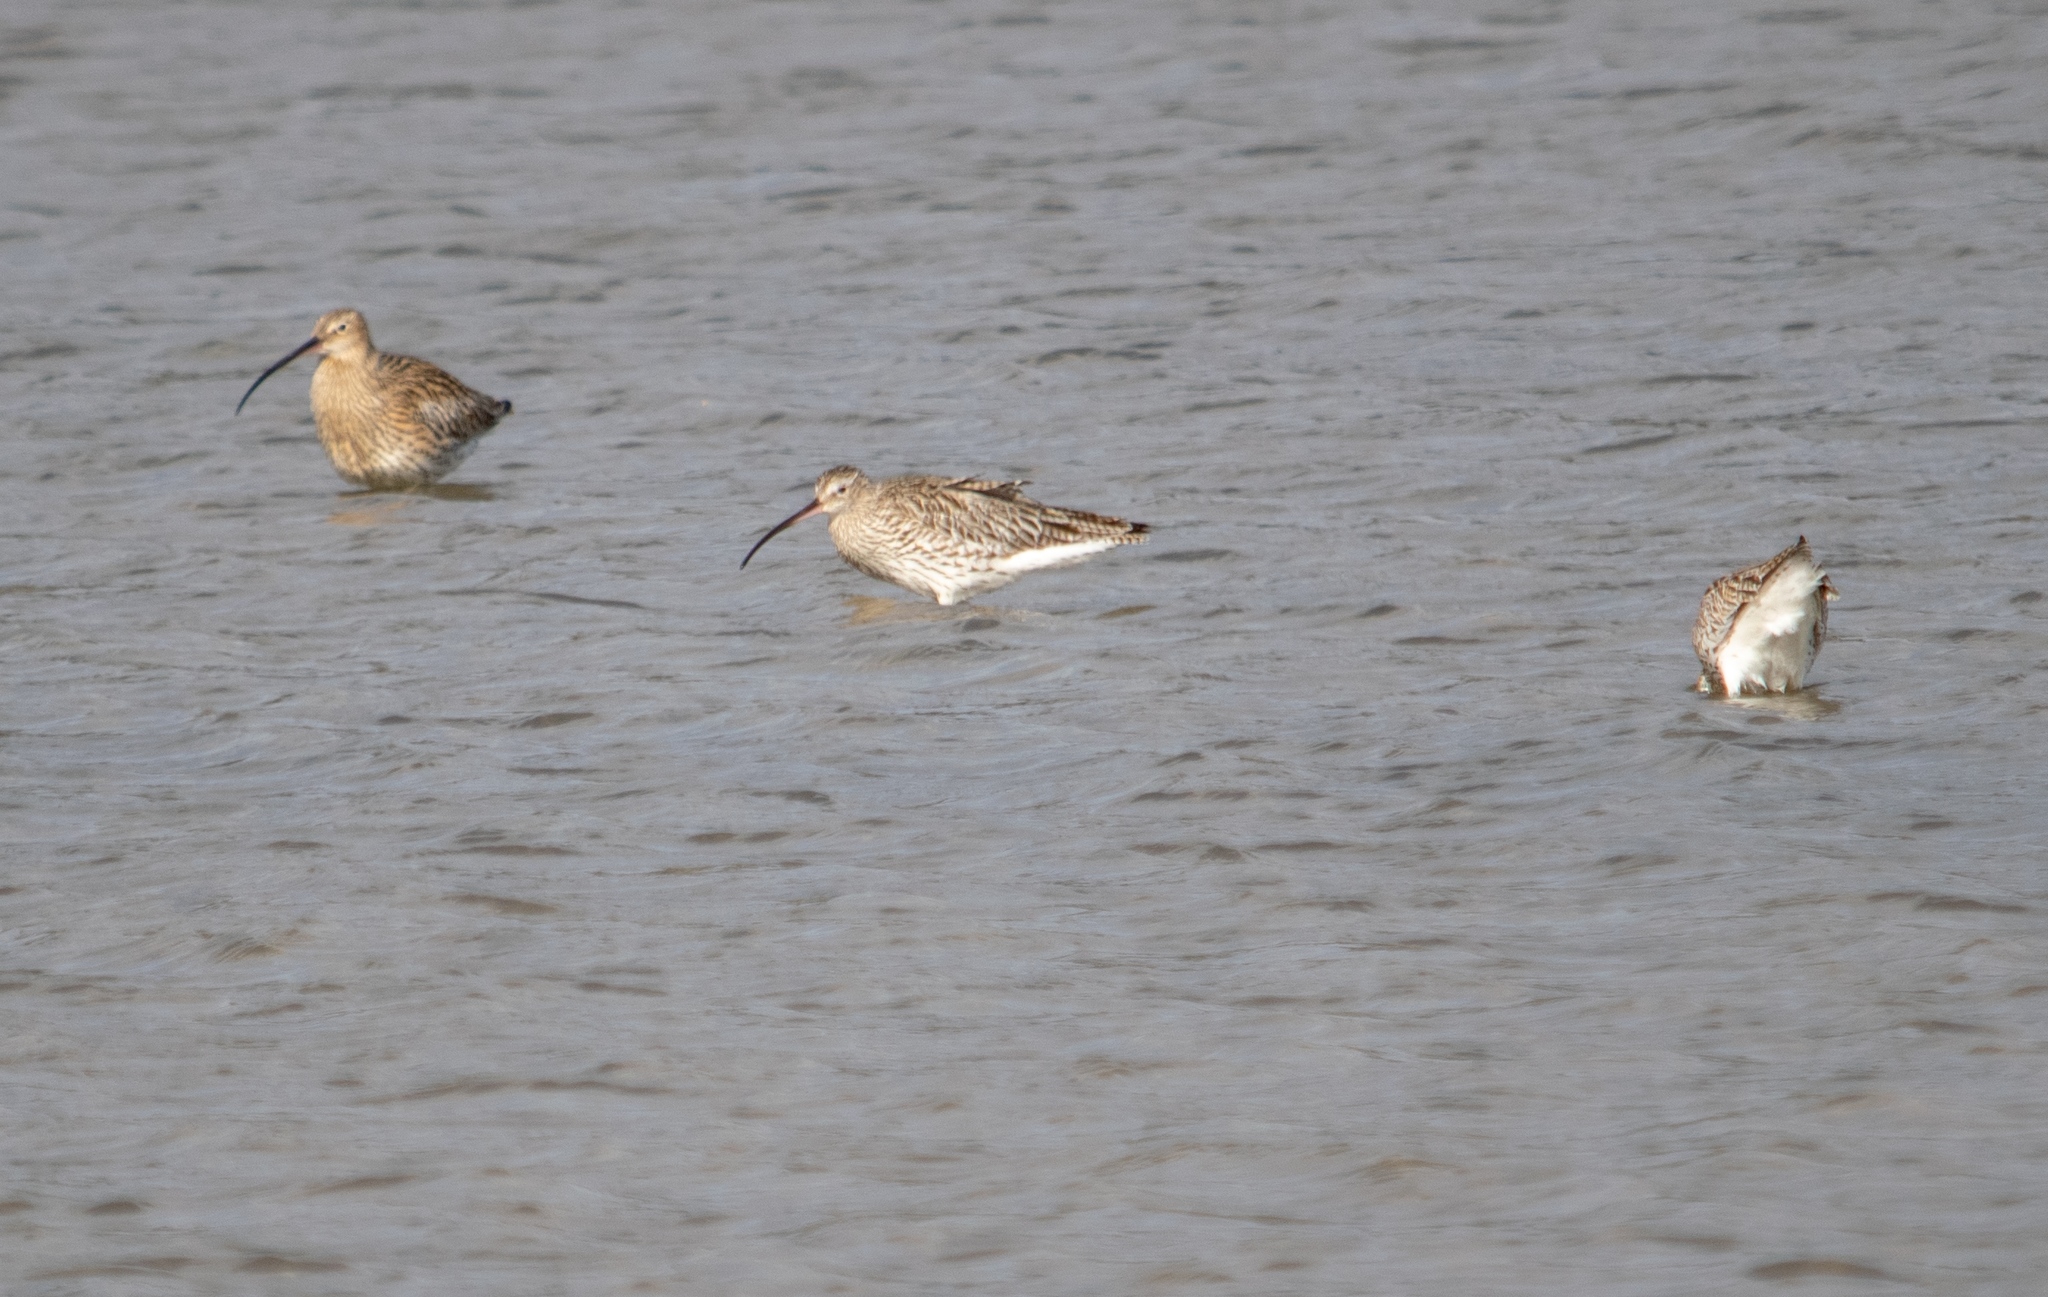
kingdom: Animalia
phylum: Chordata
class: Aves
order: Charadriiformes
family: Scolopacidae
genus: Numenius
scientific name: Numenius arquata
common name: Eurasian curlew
